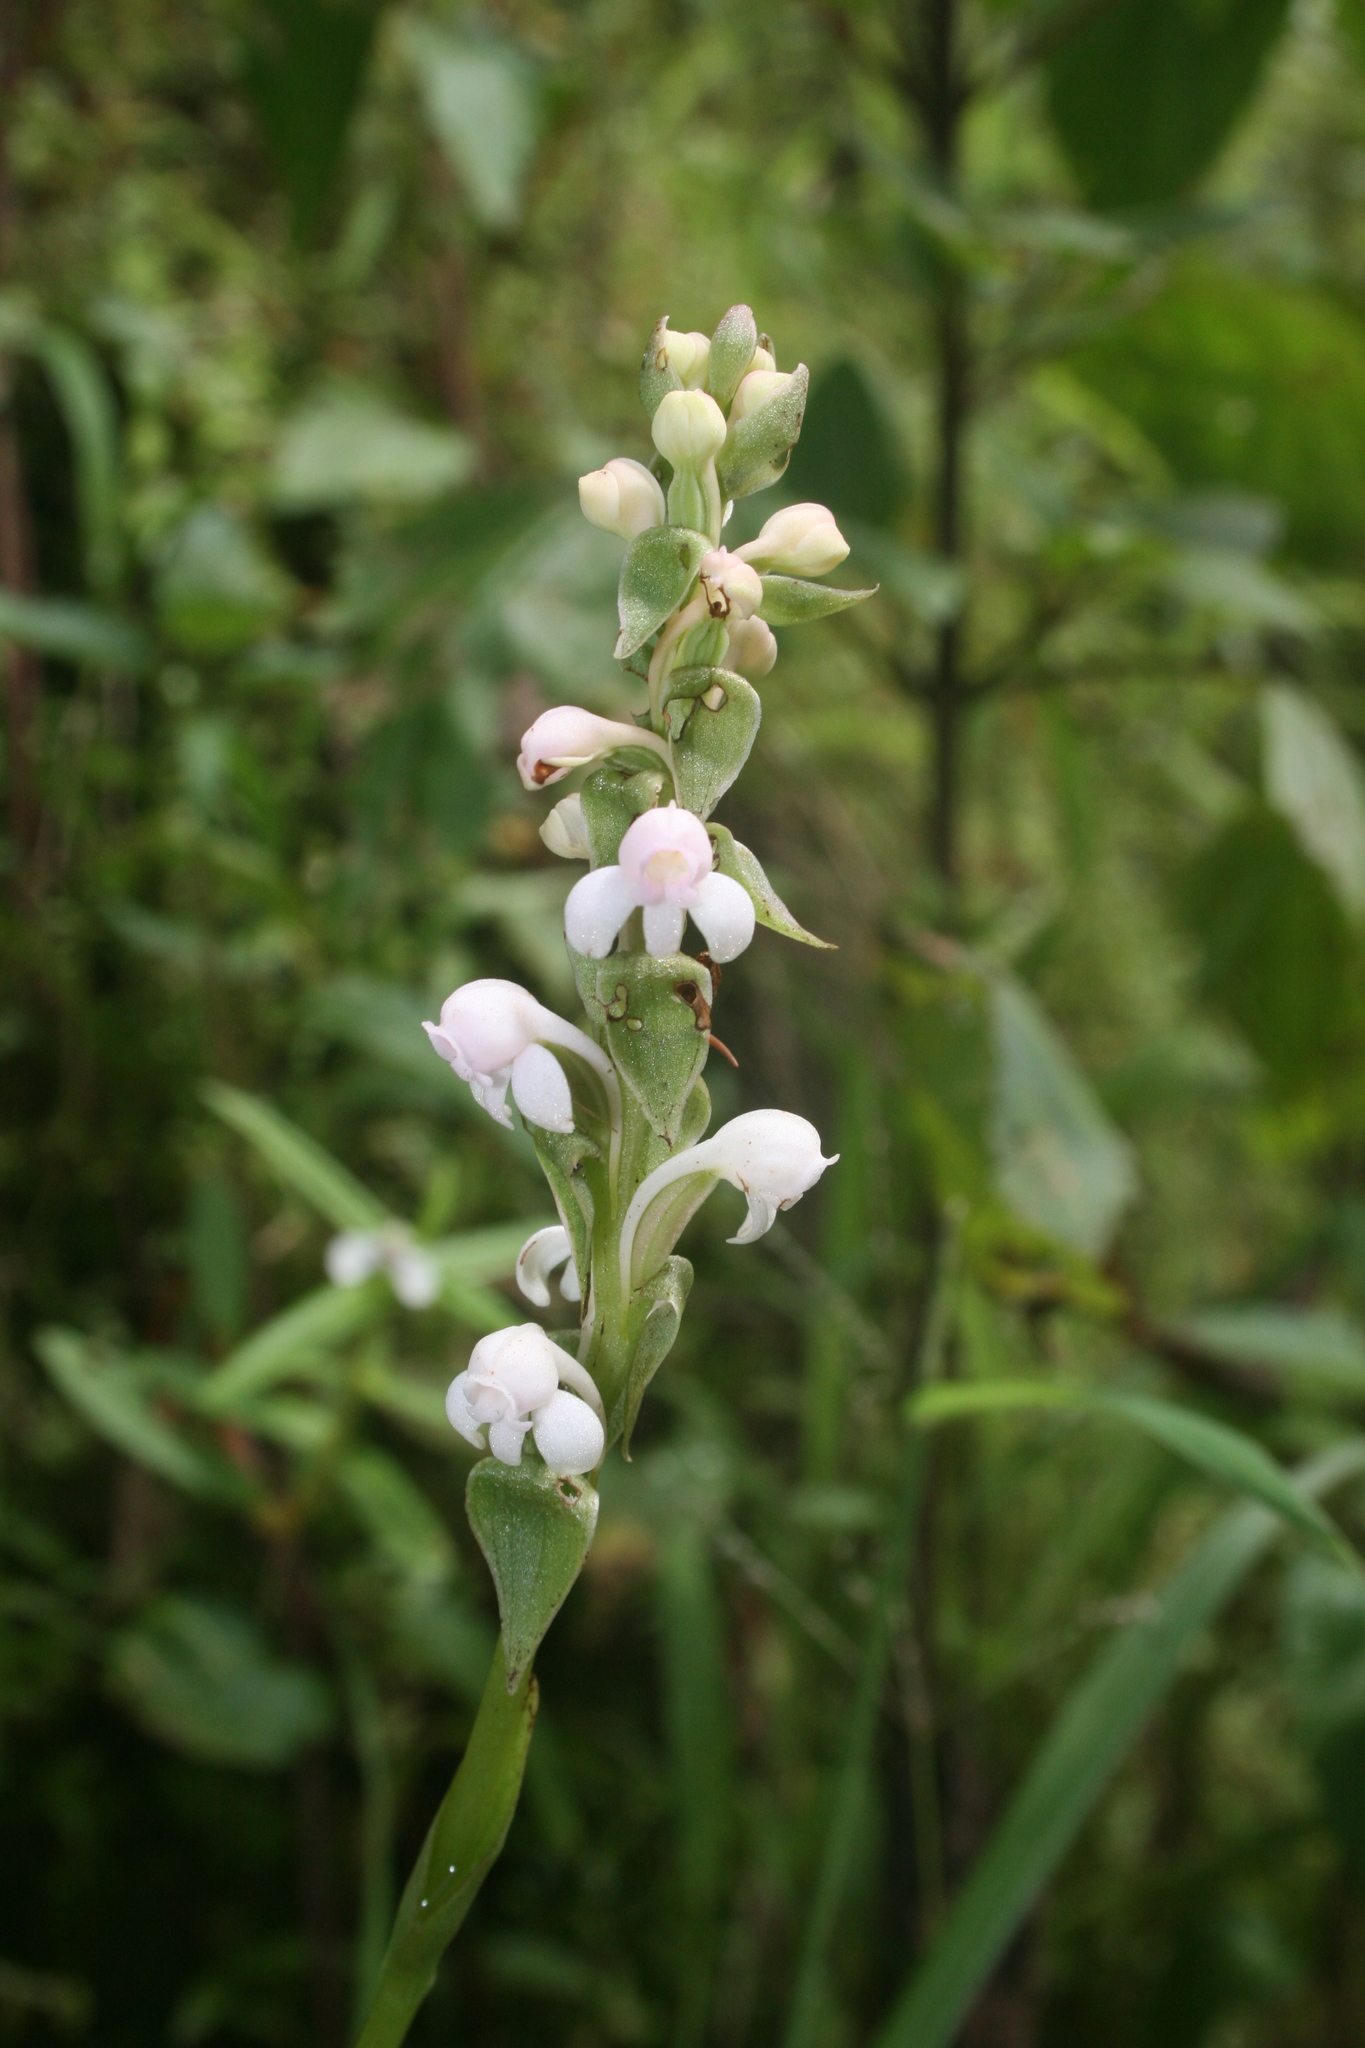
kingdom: Plantae
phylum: Tracheophyta
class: Liliopsida
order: Asparagales
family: Orchidaceae
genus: Satyrium
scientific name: Satyrium nepalense
